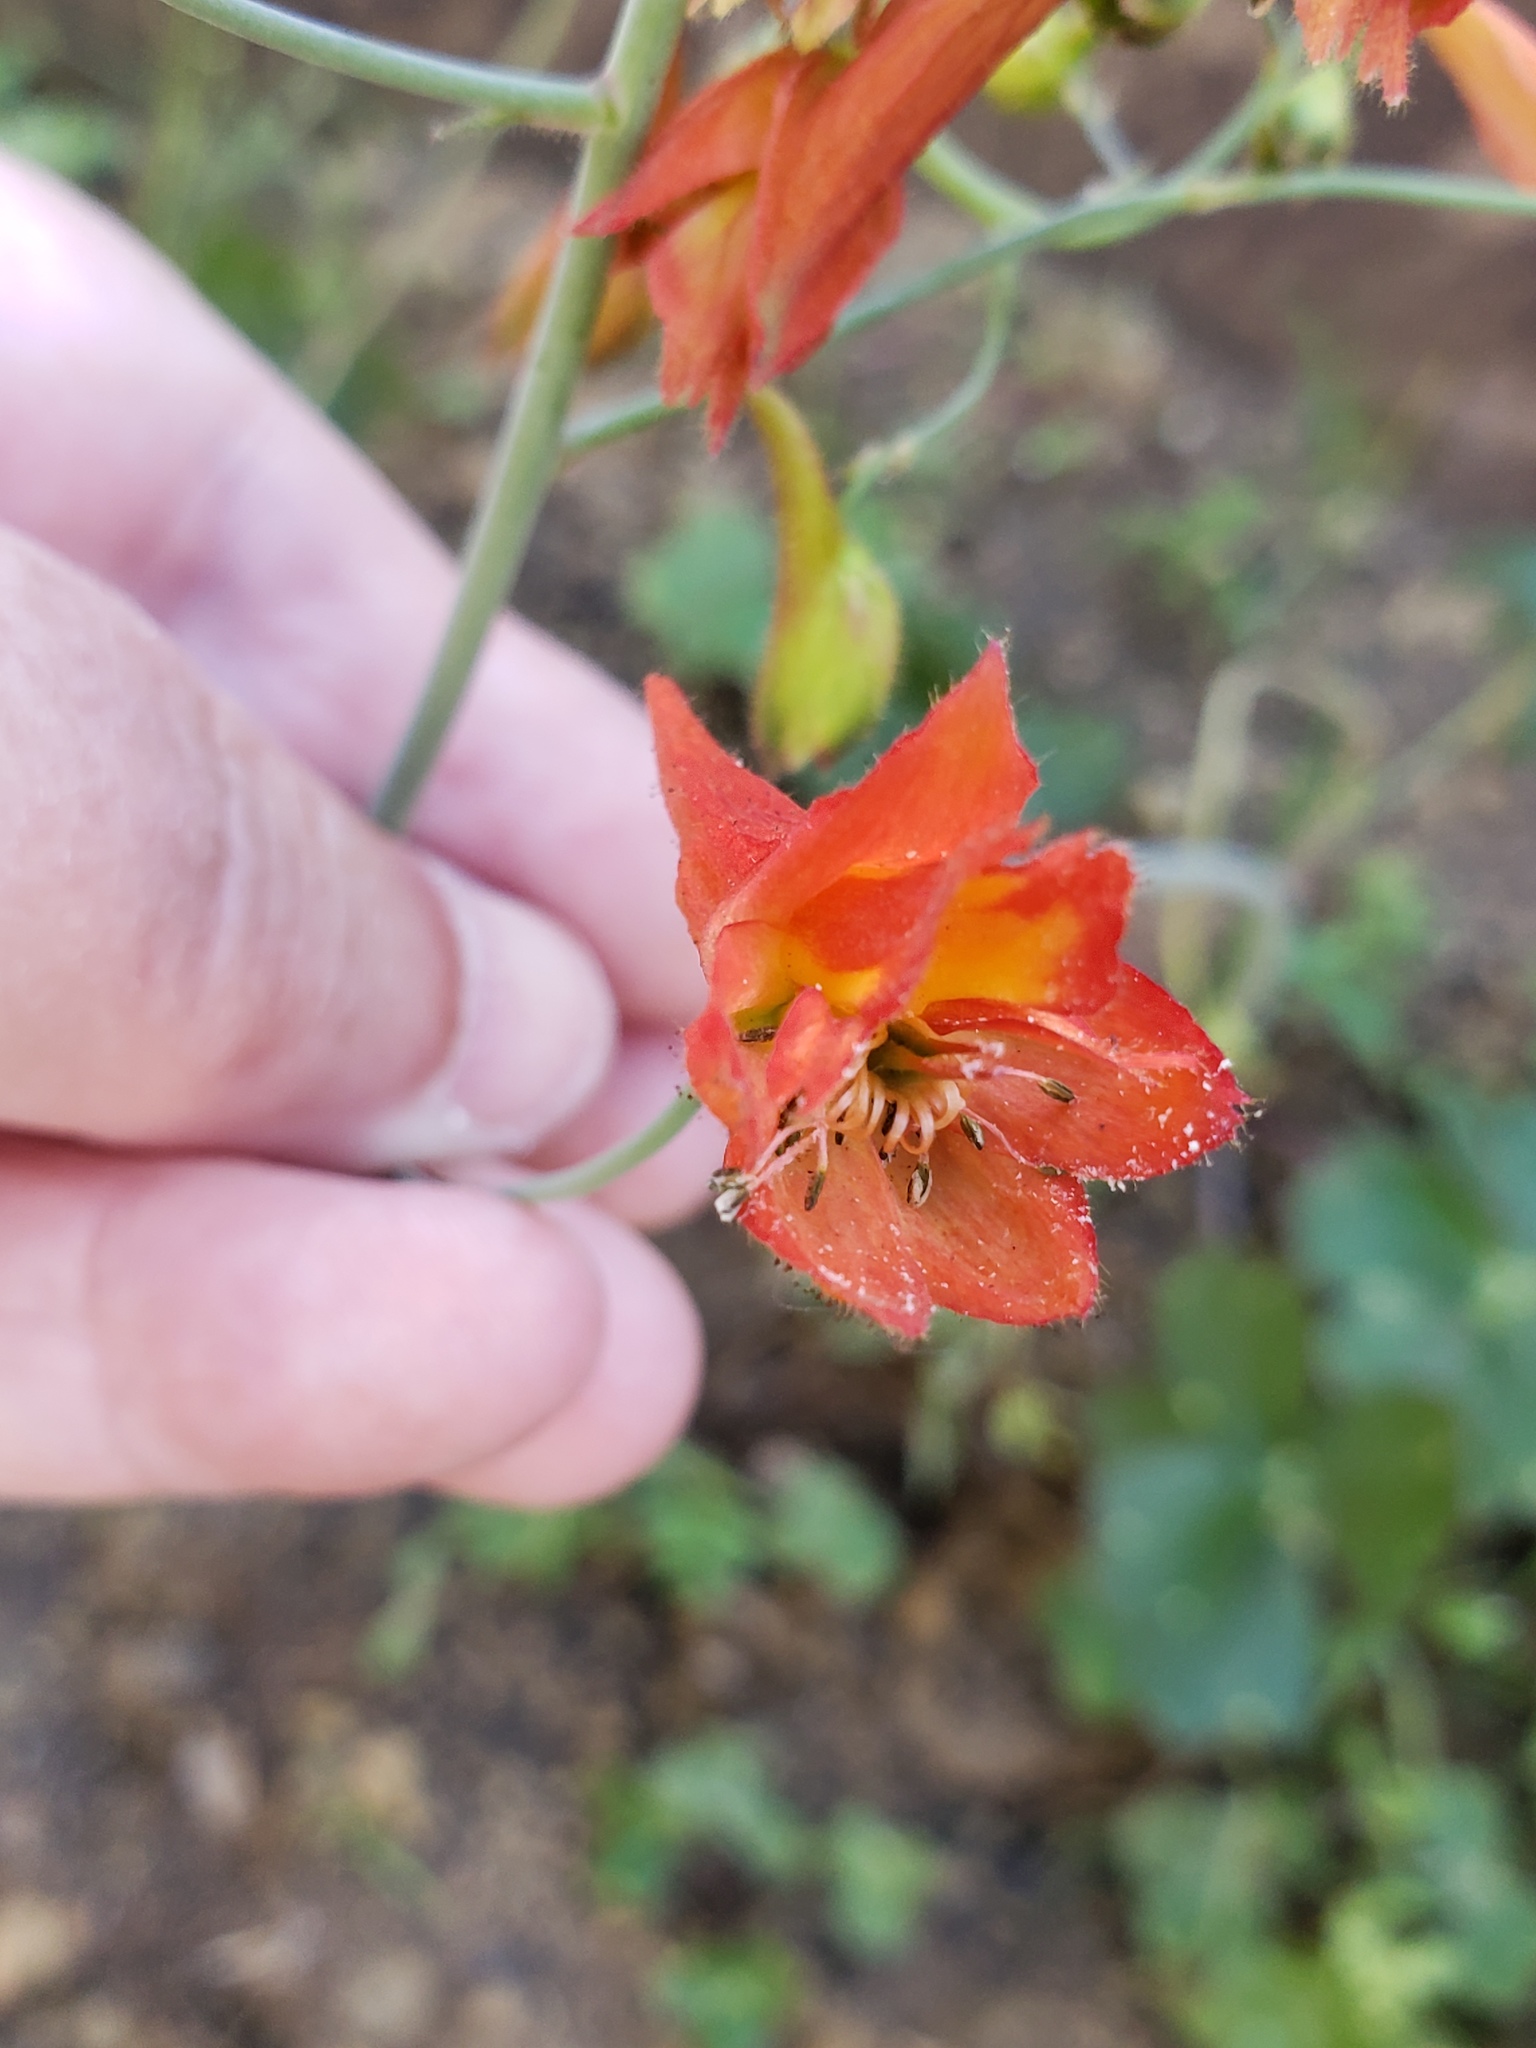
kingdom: Plantae
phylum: Tracheophyta
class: Magnoliopsida
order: Ranunculales
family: Ranunculaceae
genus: Delphinium
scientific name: Delphinium nudicaule
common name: Red larkspur
